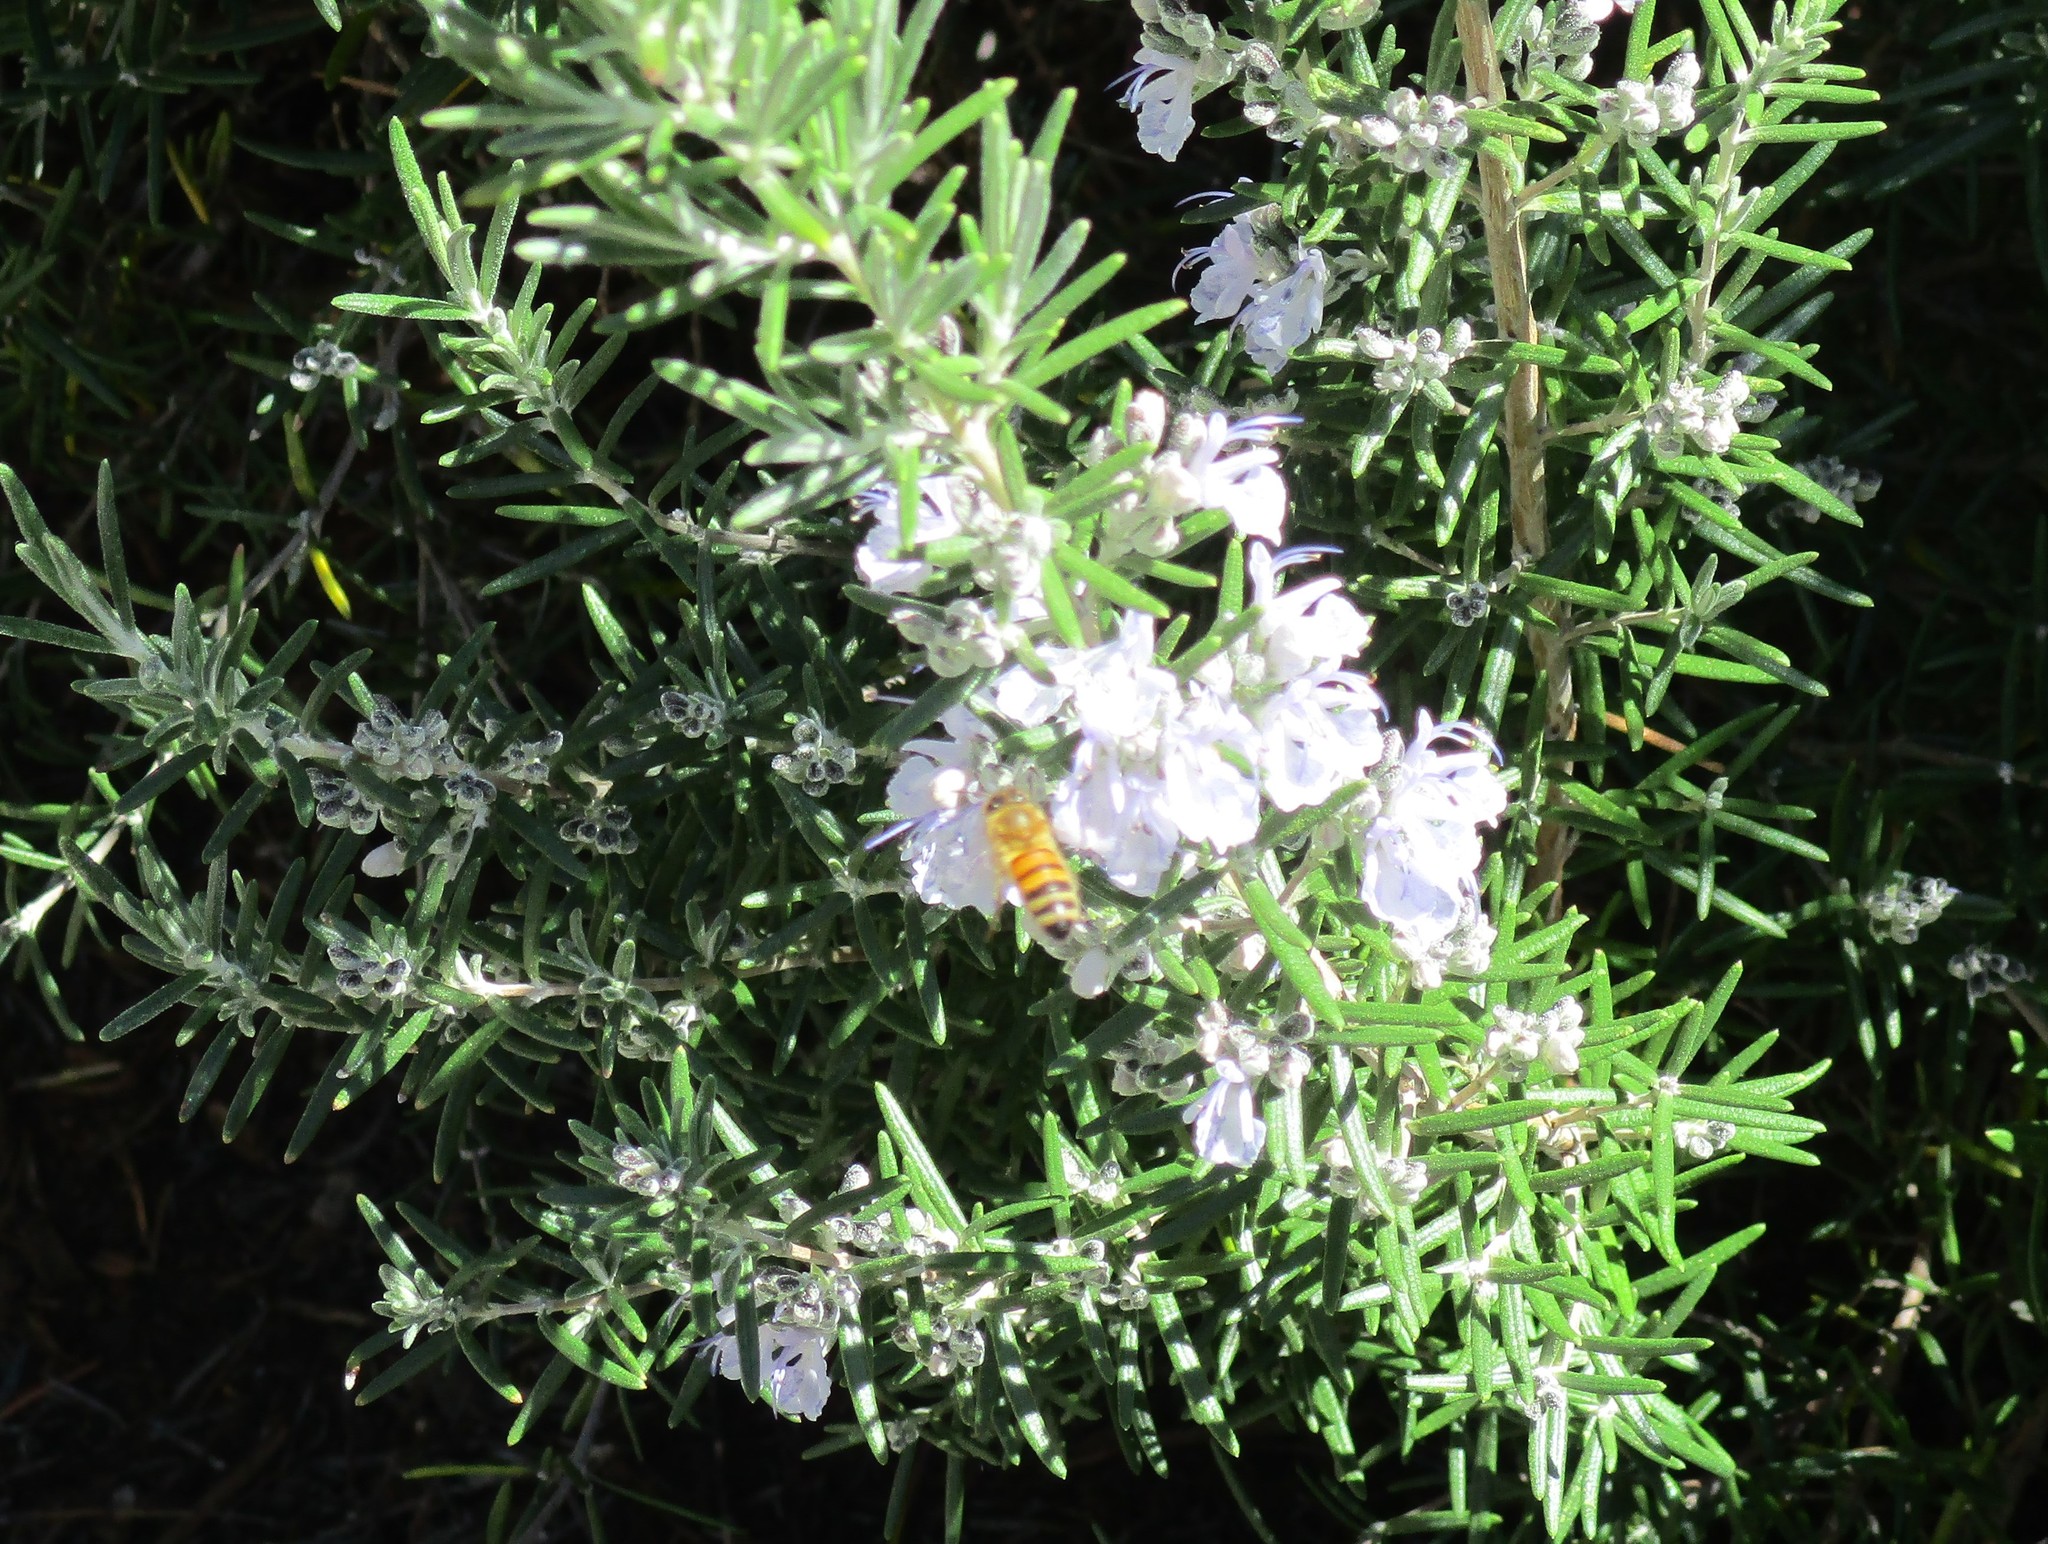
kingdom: Animalia
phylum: Arthropoda
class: Insecta
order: Hymenoptera
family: Apidae
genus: Apis
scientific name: Apis mellifera
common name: Honey bee
